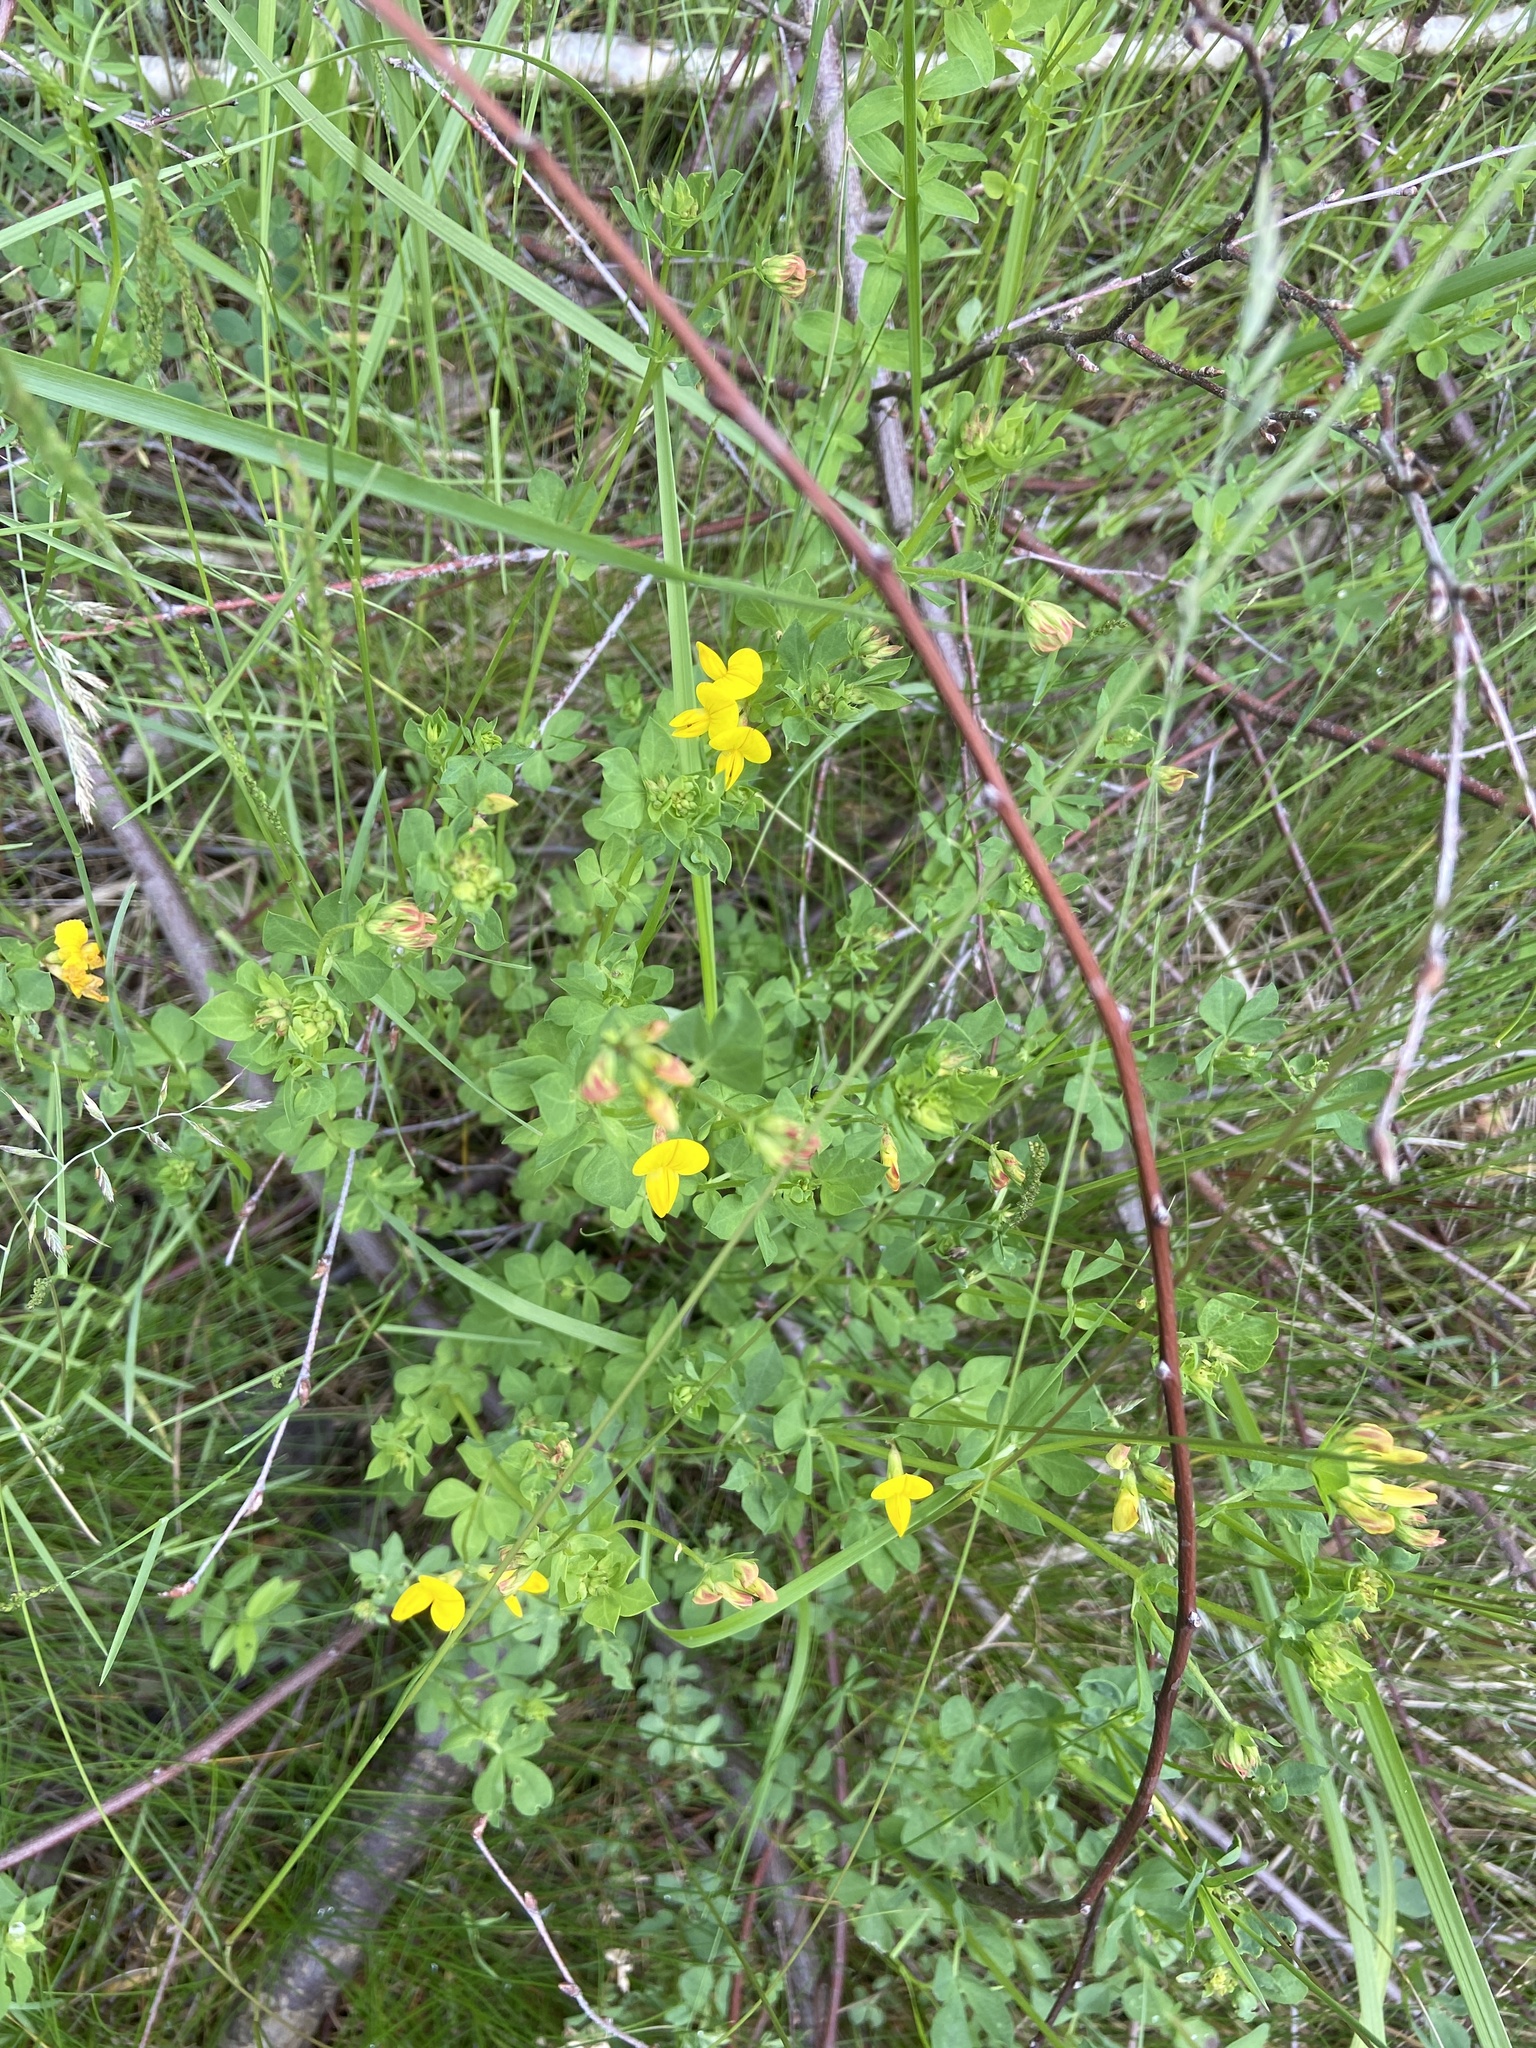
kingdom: Plantae
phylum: Tracheophyta
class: Magnoliopsida
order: Fabales
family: Fabaceae
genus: Lotus
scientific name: Lotus corniculatus
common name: Common bird's-foot-trefoil
